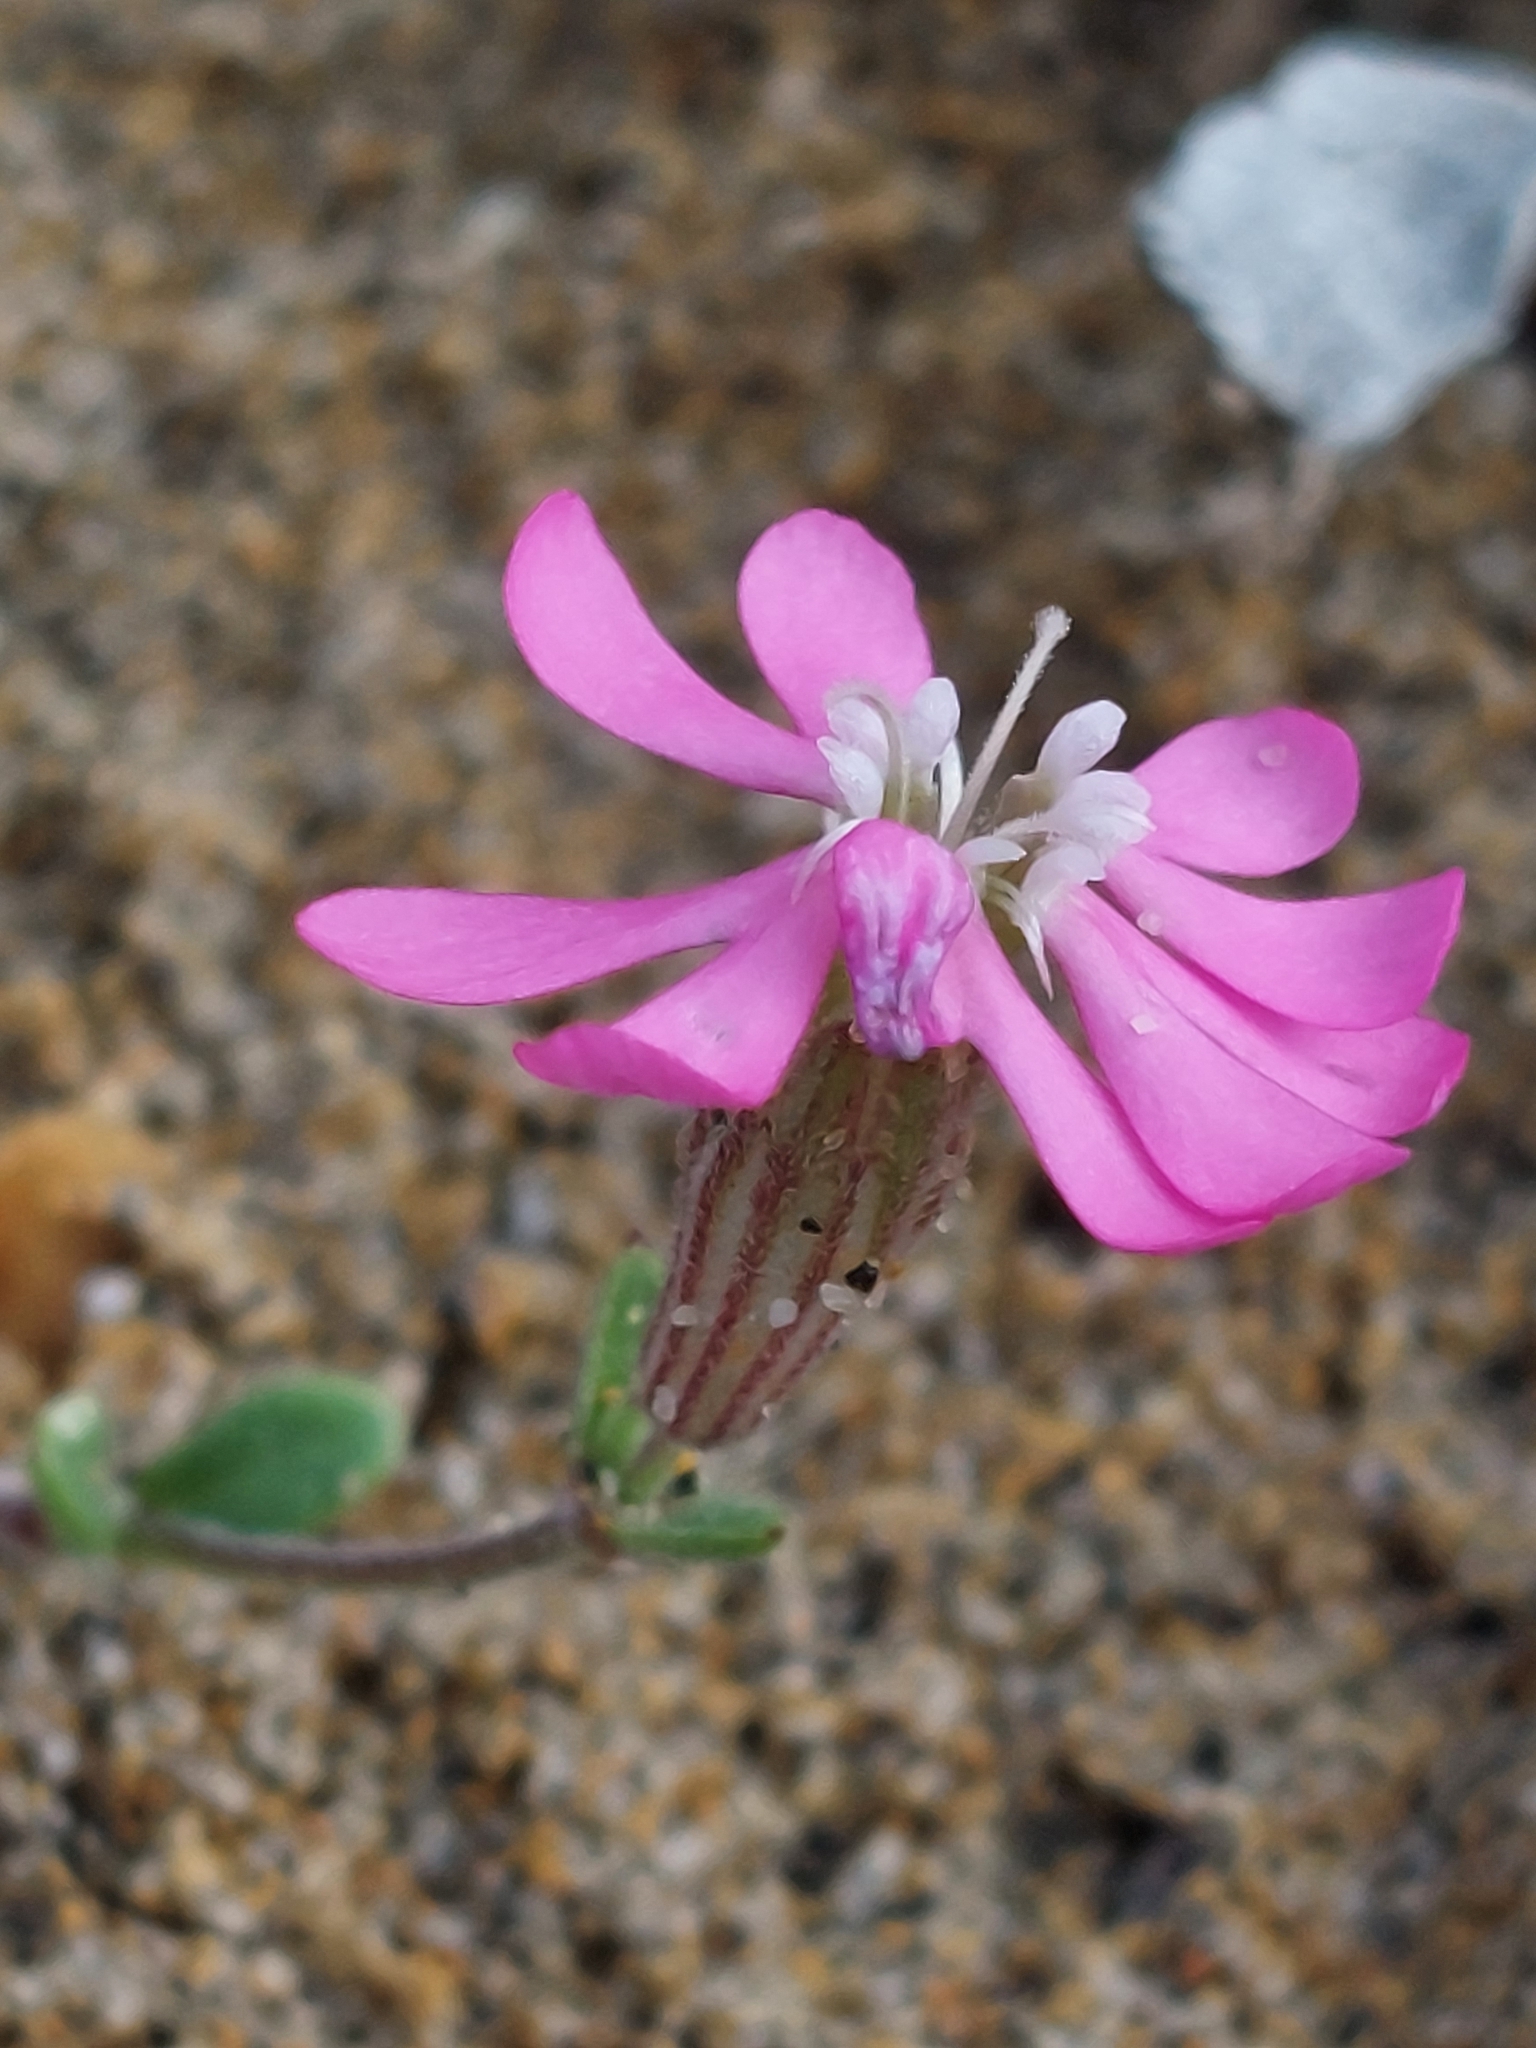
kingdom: Plantae
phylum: Tracheophyta
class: Magnoliopsida
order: Caryophyllales
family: Caryophyllaceae
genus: Silene
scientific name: Silene colorata
